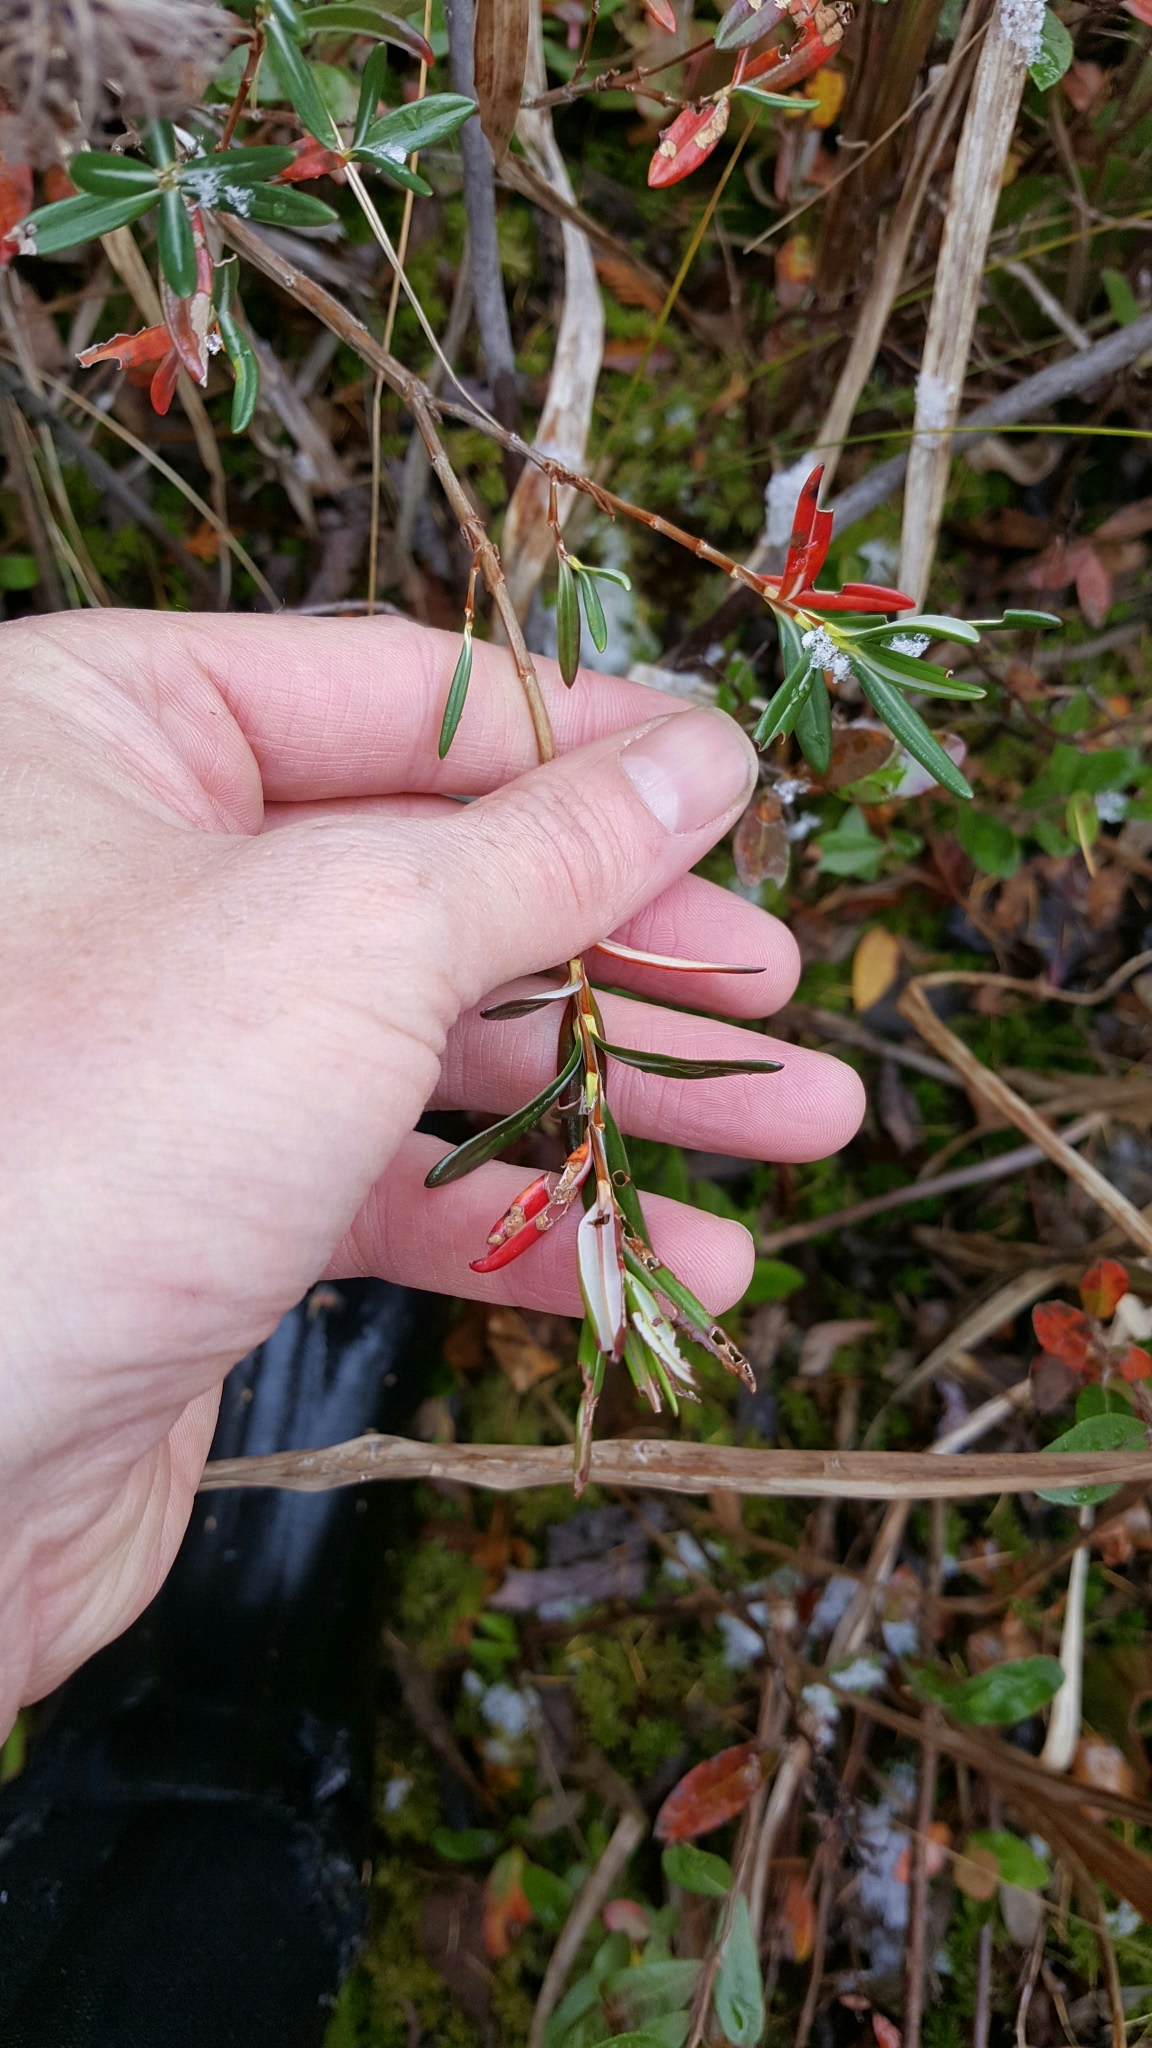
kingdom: Plantae
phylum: Tracheophyta
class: Magnoliopsida
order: Ericales
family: Ericaceae
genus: Kalmia
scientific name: Kalmia polifolia
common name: Bog-laurel
